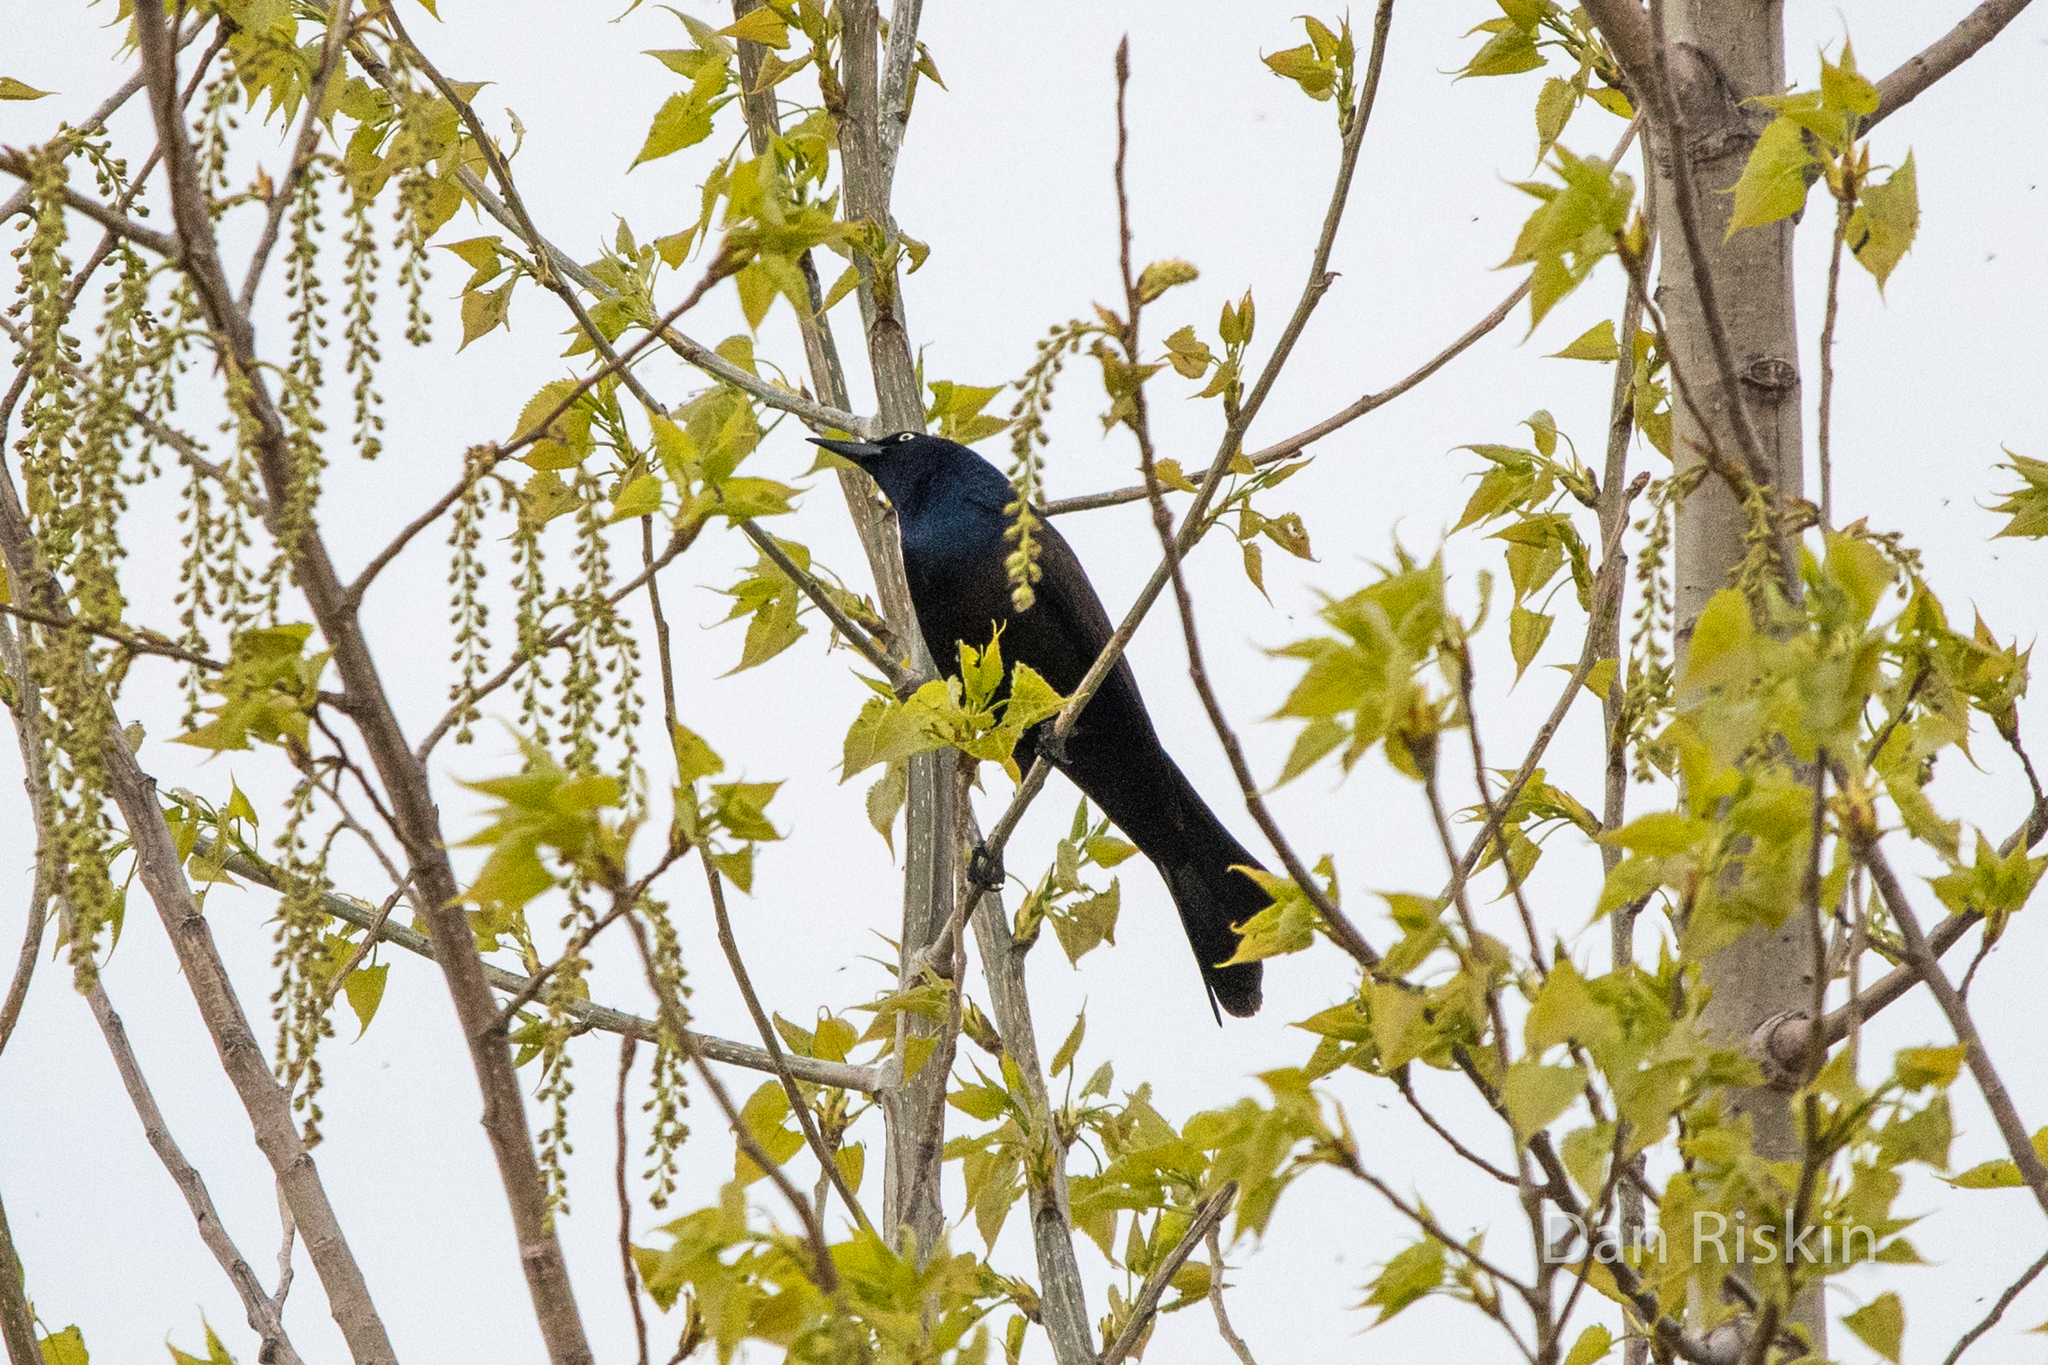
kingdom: Animalia
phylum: Chordata
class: Aves
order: Passeriformes
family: Icteridae
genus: Quiscalus
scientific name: Quiscalus quiscula
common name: Common grackle
